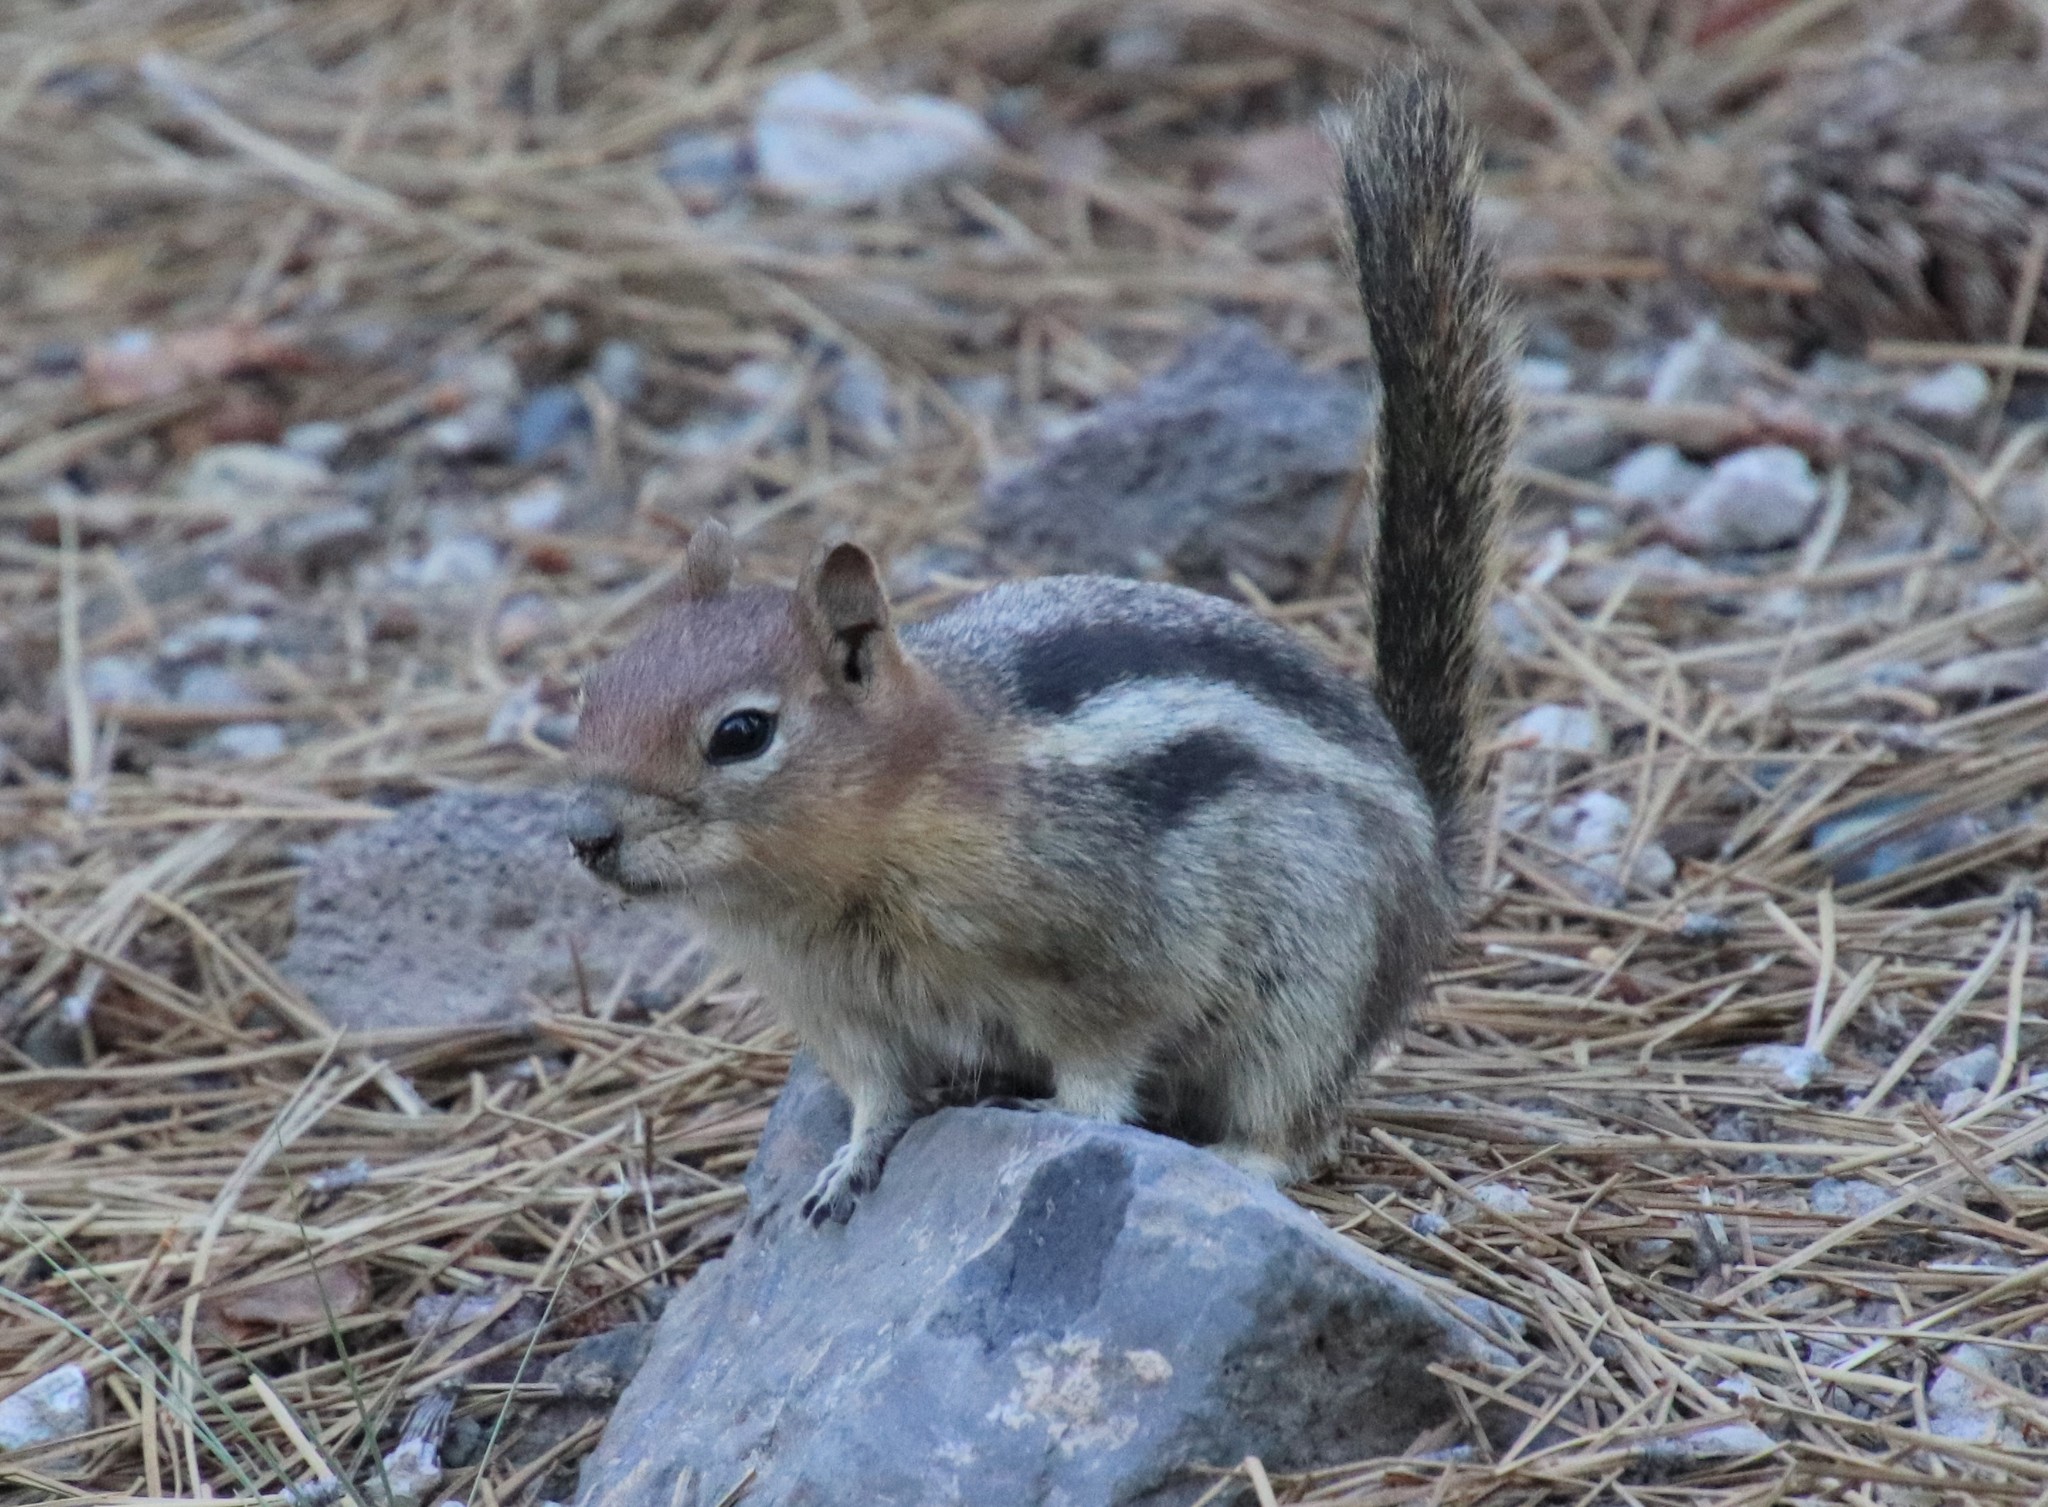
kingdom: Animalia
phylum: Chordata
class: Mammalia
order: Rodentia
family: Sciuridae
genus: Callospermophilus
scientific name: Callospermophilus lateralis
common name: Golden-mantled ground squirrel
